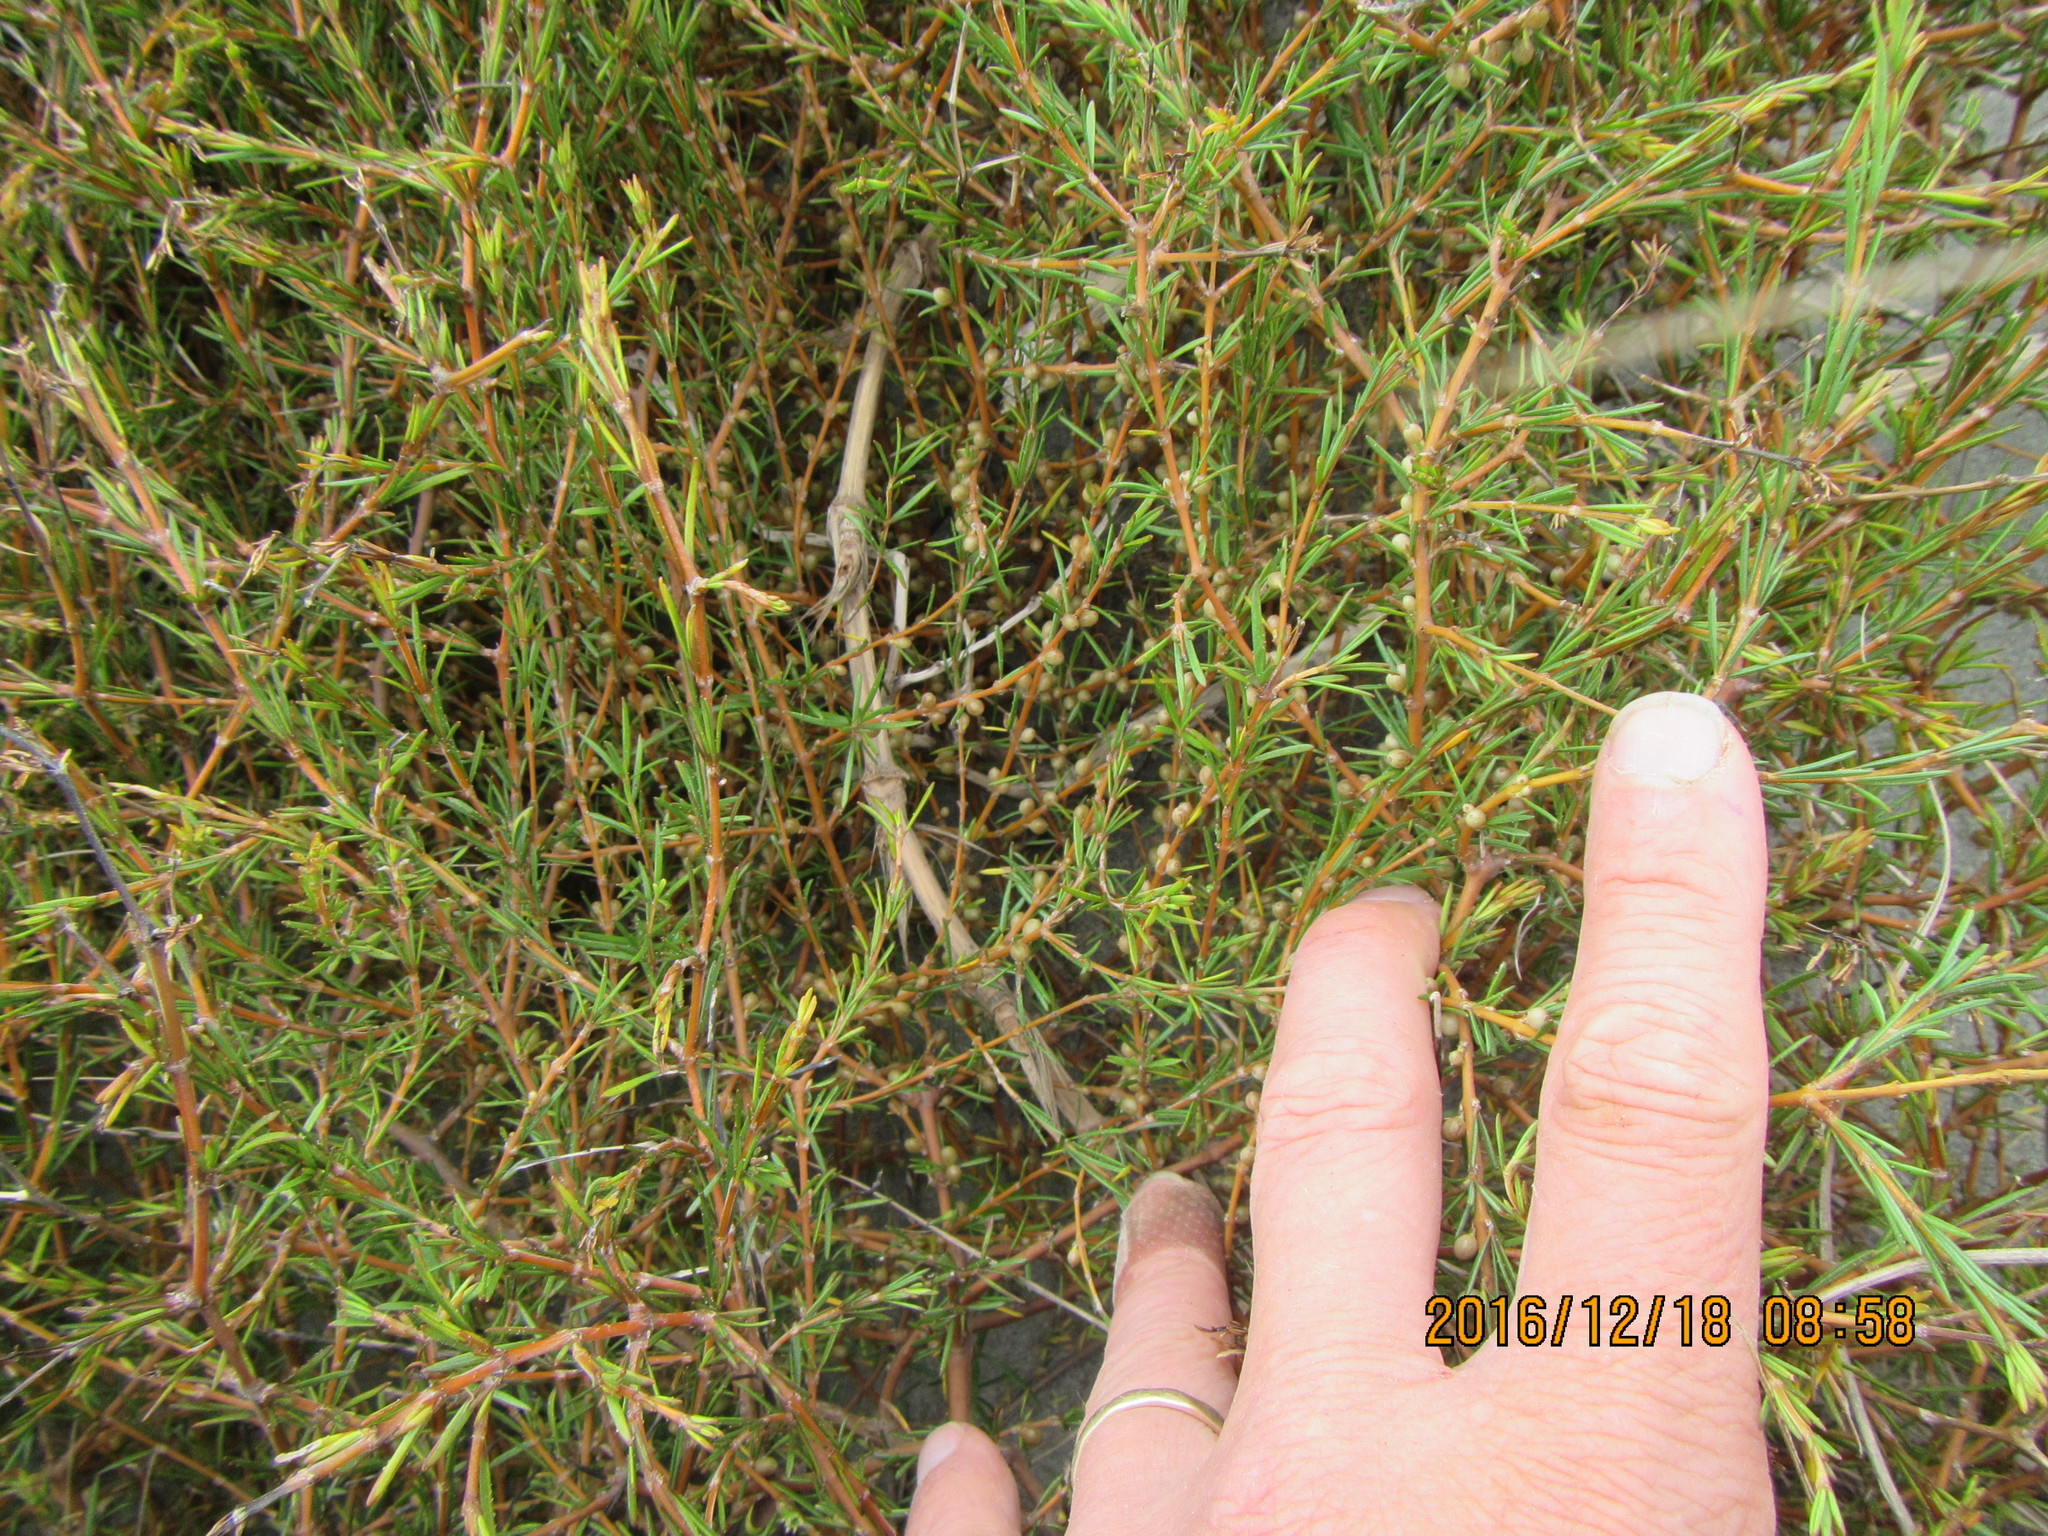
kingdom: Plantae
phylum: Tracheophyta
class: Magnoliopsida
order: Gentianales
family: Rubiaceae
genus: Coprosma
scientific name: Coprosma acerosa
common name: Sand coprosma
